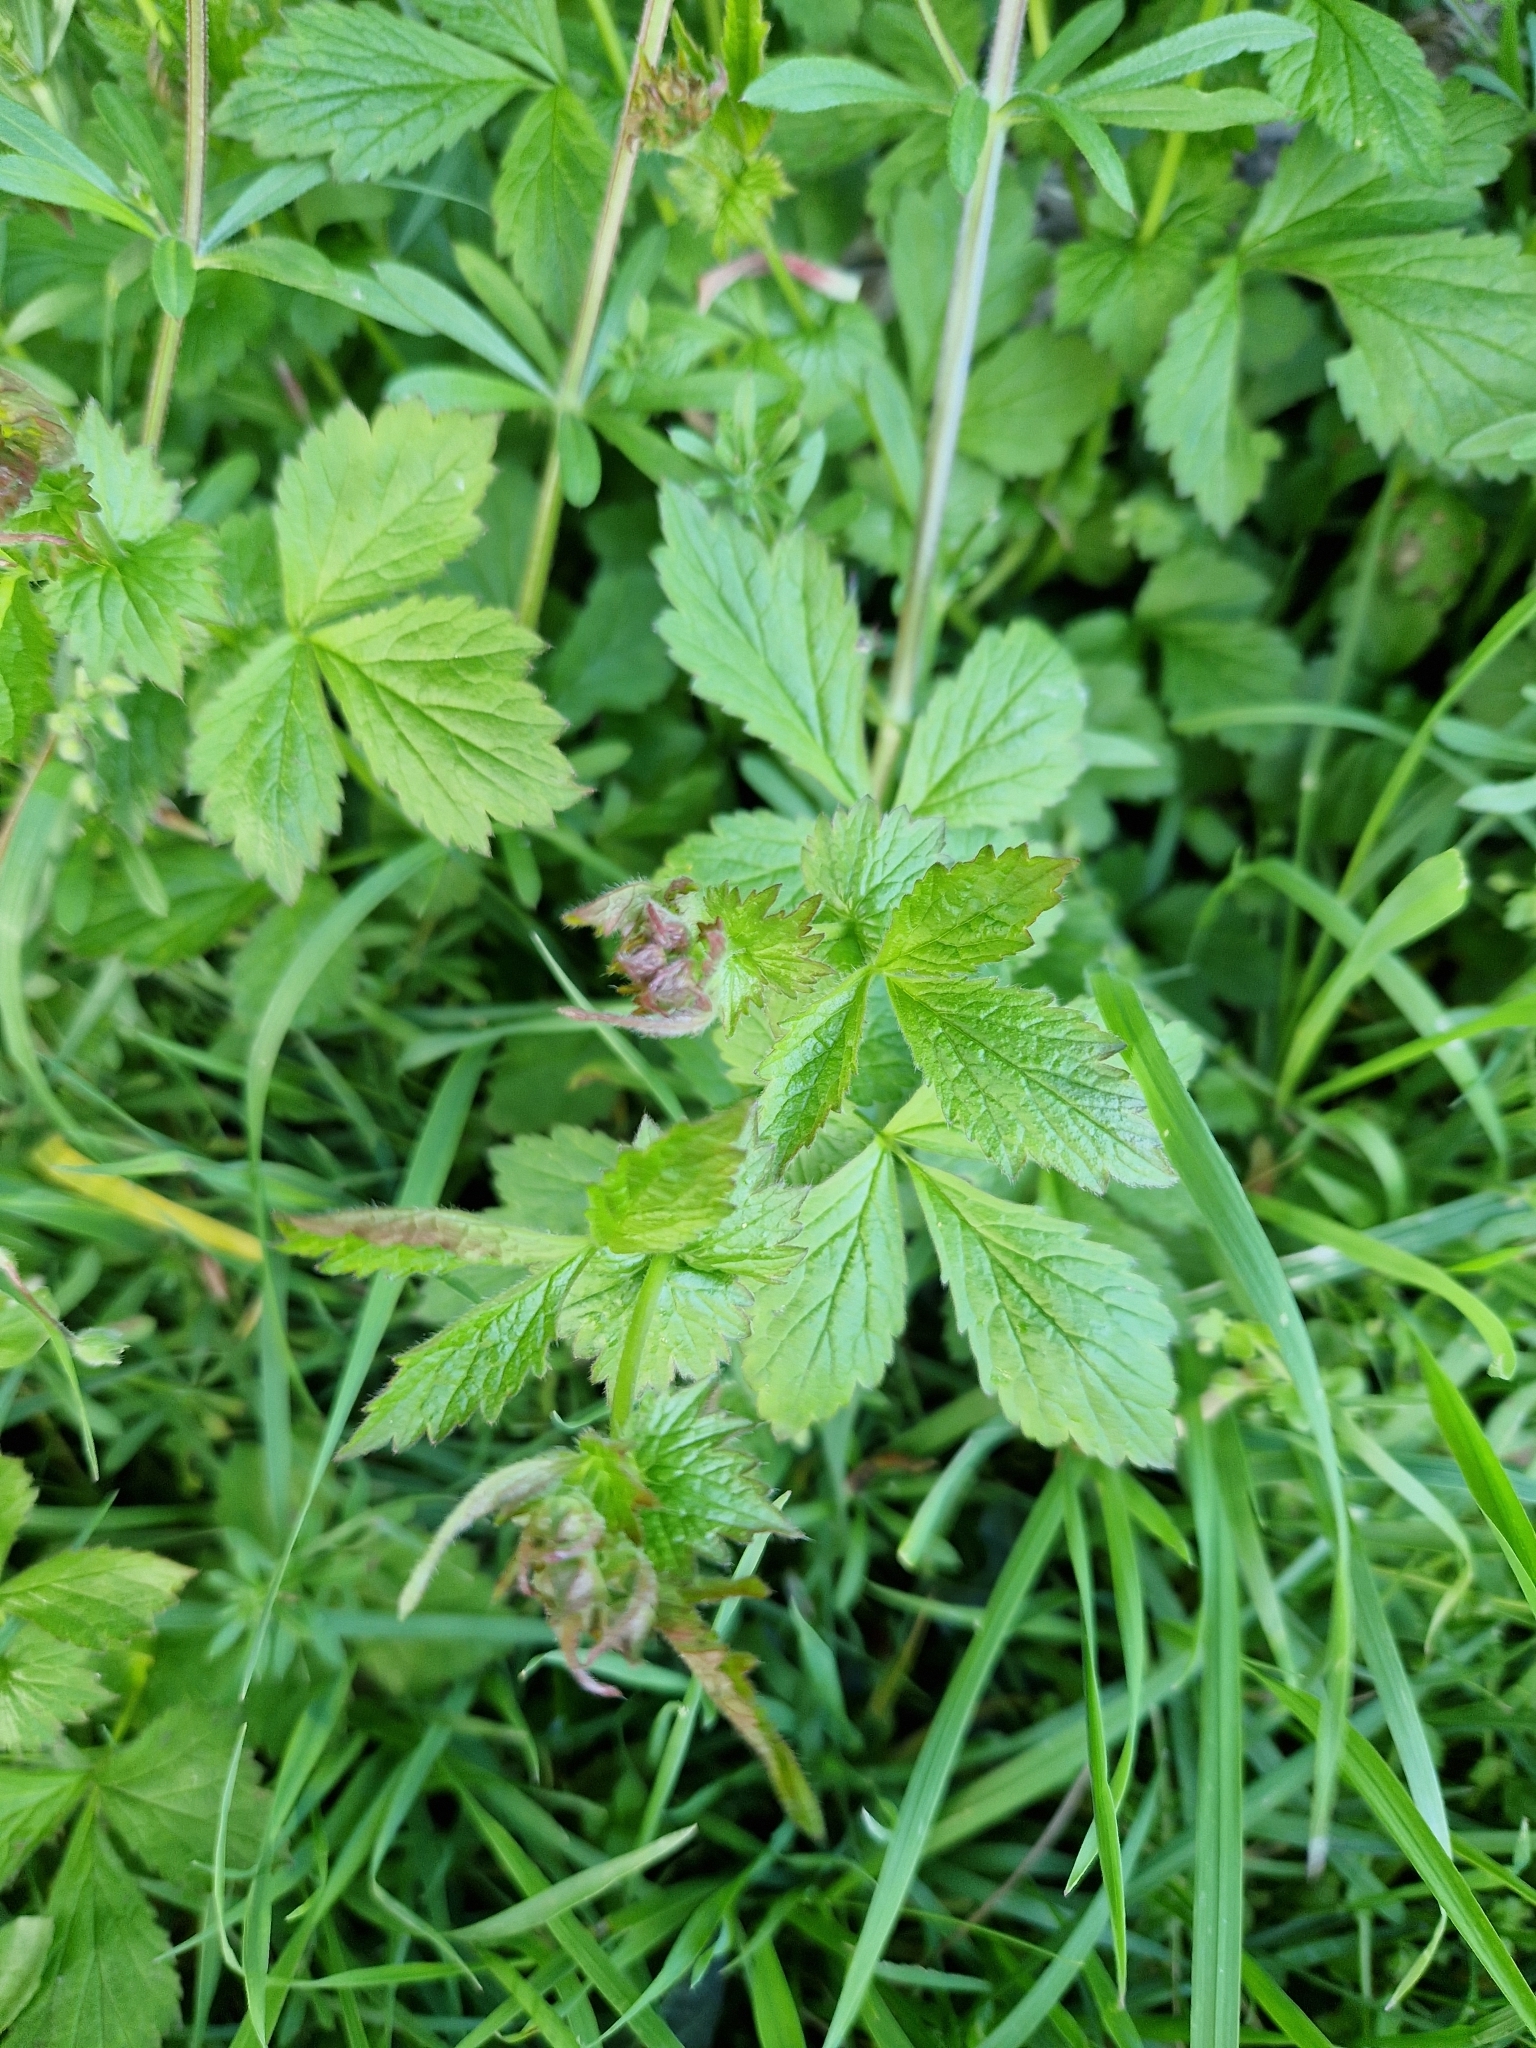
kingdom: Plantae
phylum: Tracheophyta
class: Magnoliopsida
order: Rosales
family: Rosaceae
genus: Geum
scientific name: Geum urbanum
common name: Wood avens
